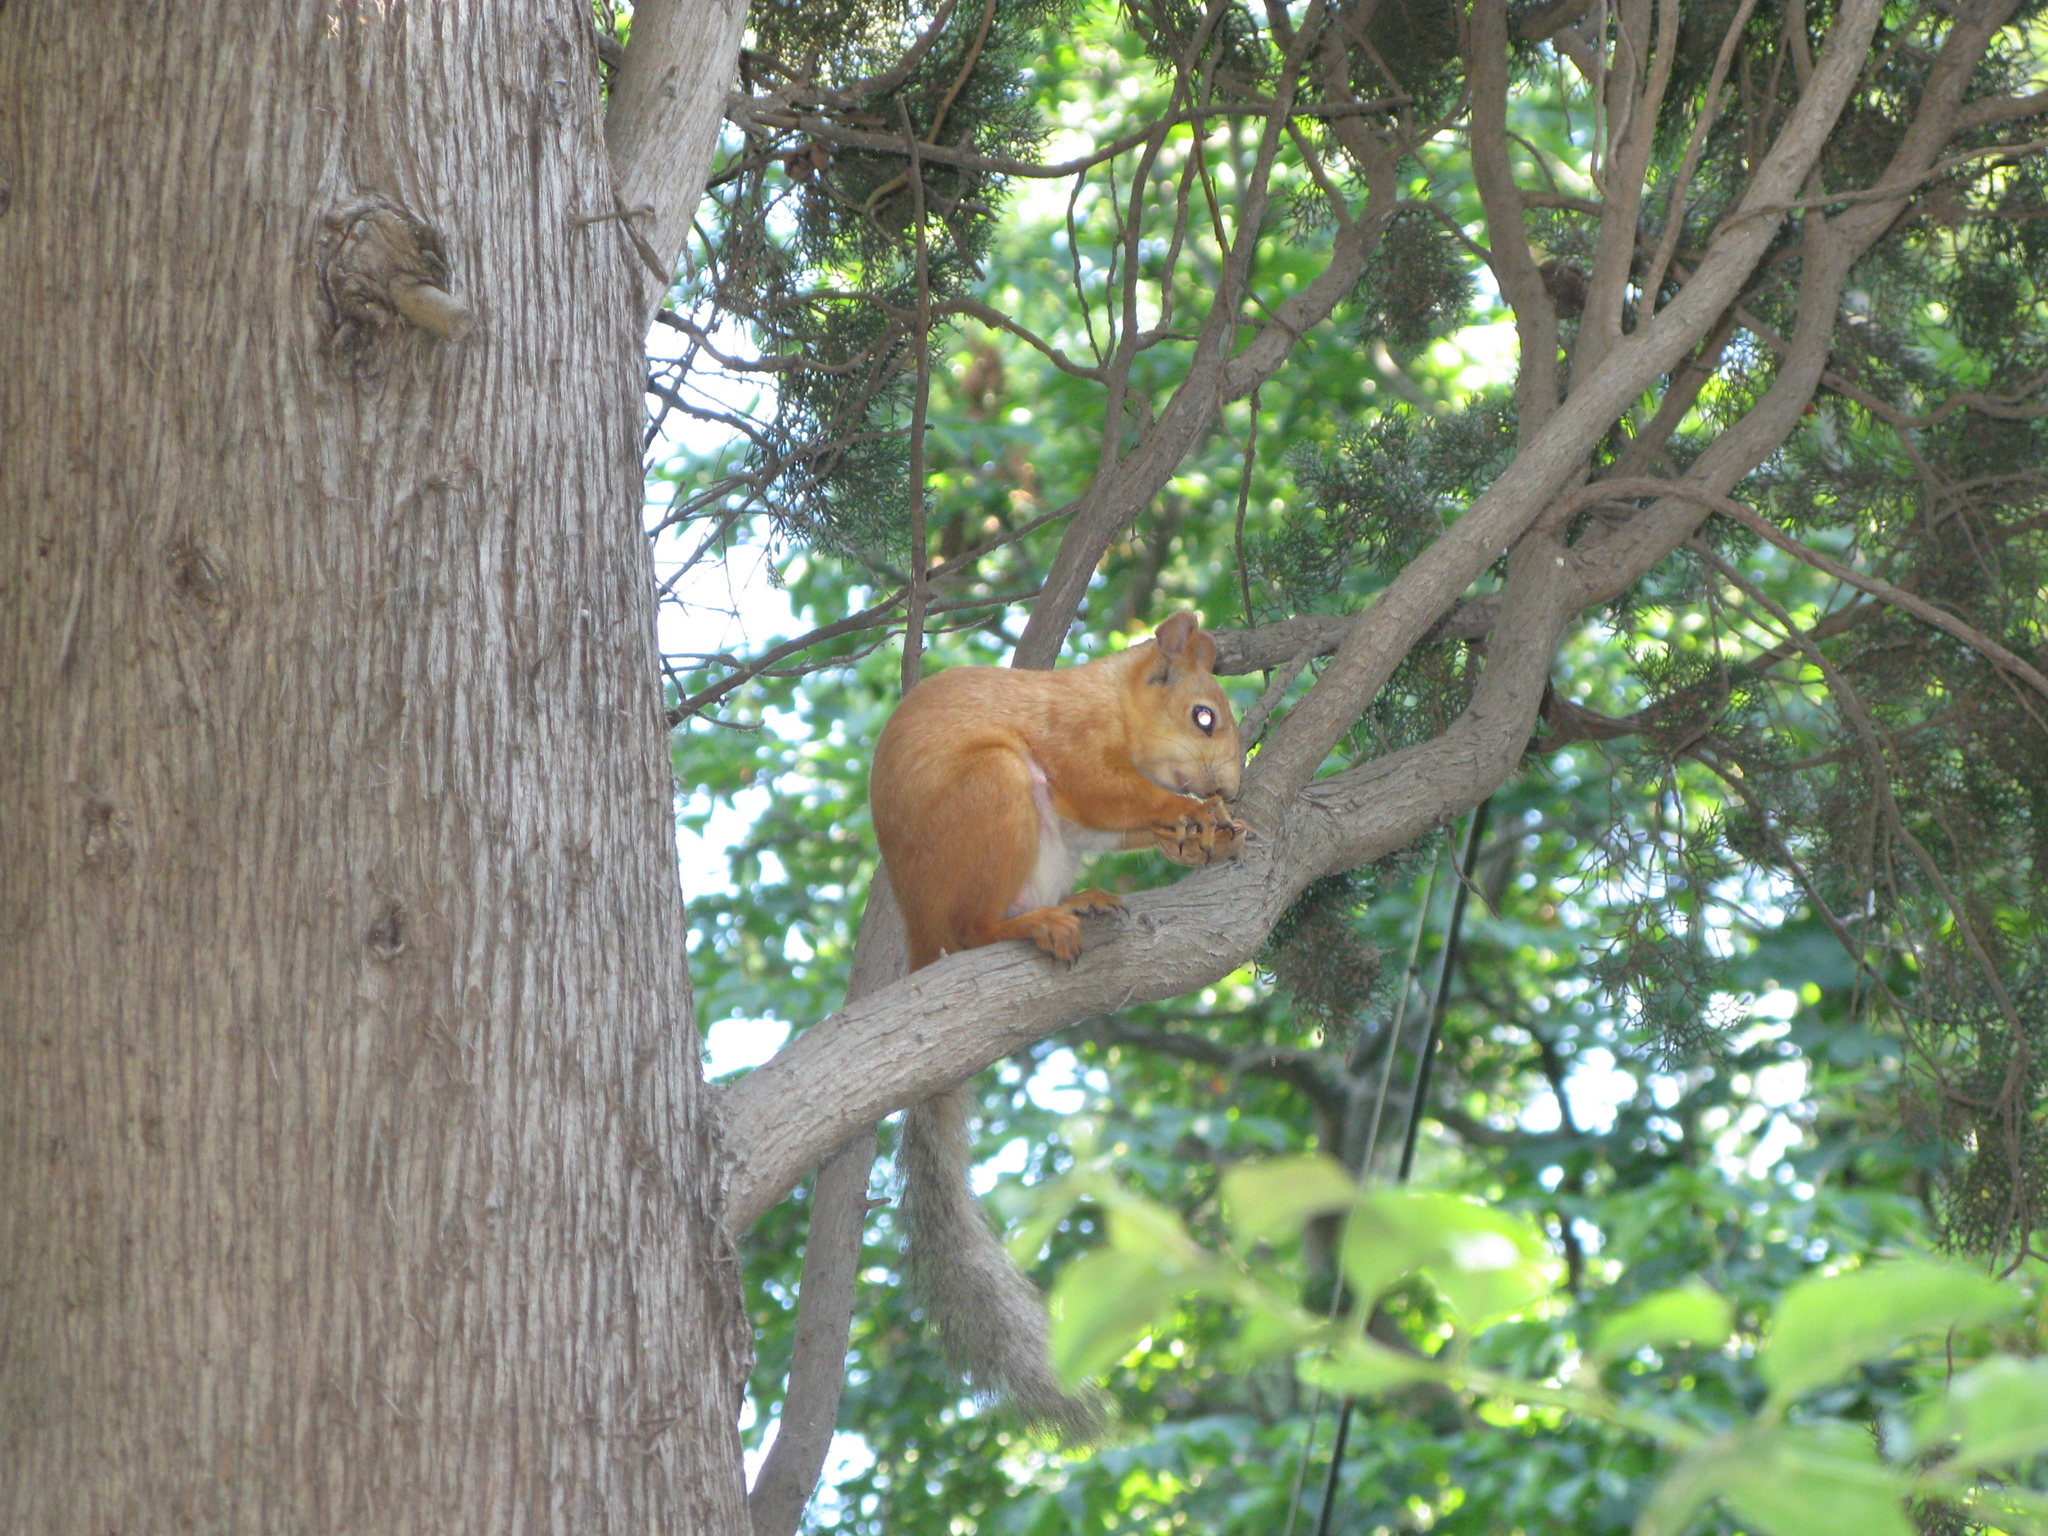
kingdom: Animalia
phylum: Chordata
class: Mammalia
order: Rodentia
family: Sciuridae
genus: Sciurus
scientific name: Sciurus vulgaris
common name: Eurasian red squirrel
